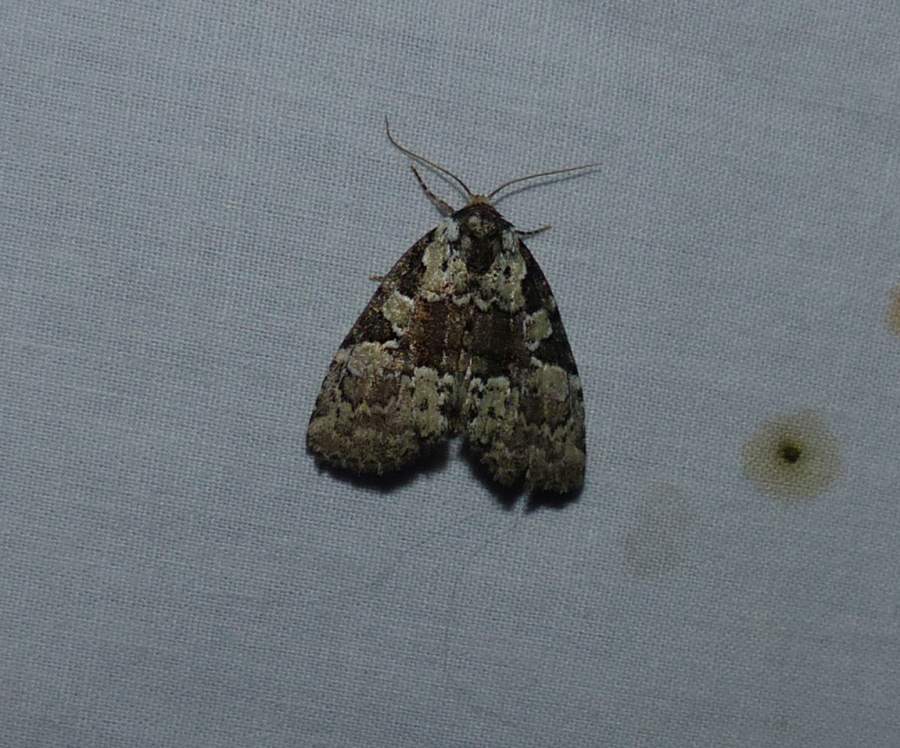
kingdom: Animalia
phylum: Arthropoda
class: Insecta
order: Lepidoptera
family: Noctuidae
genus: Leuconycta
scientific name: Leuconycta lepidula
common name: Marbled-green leuconycta moth
